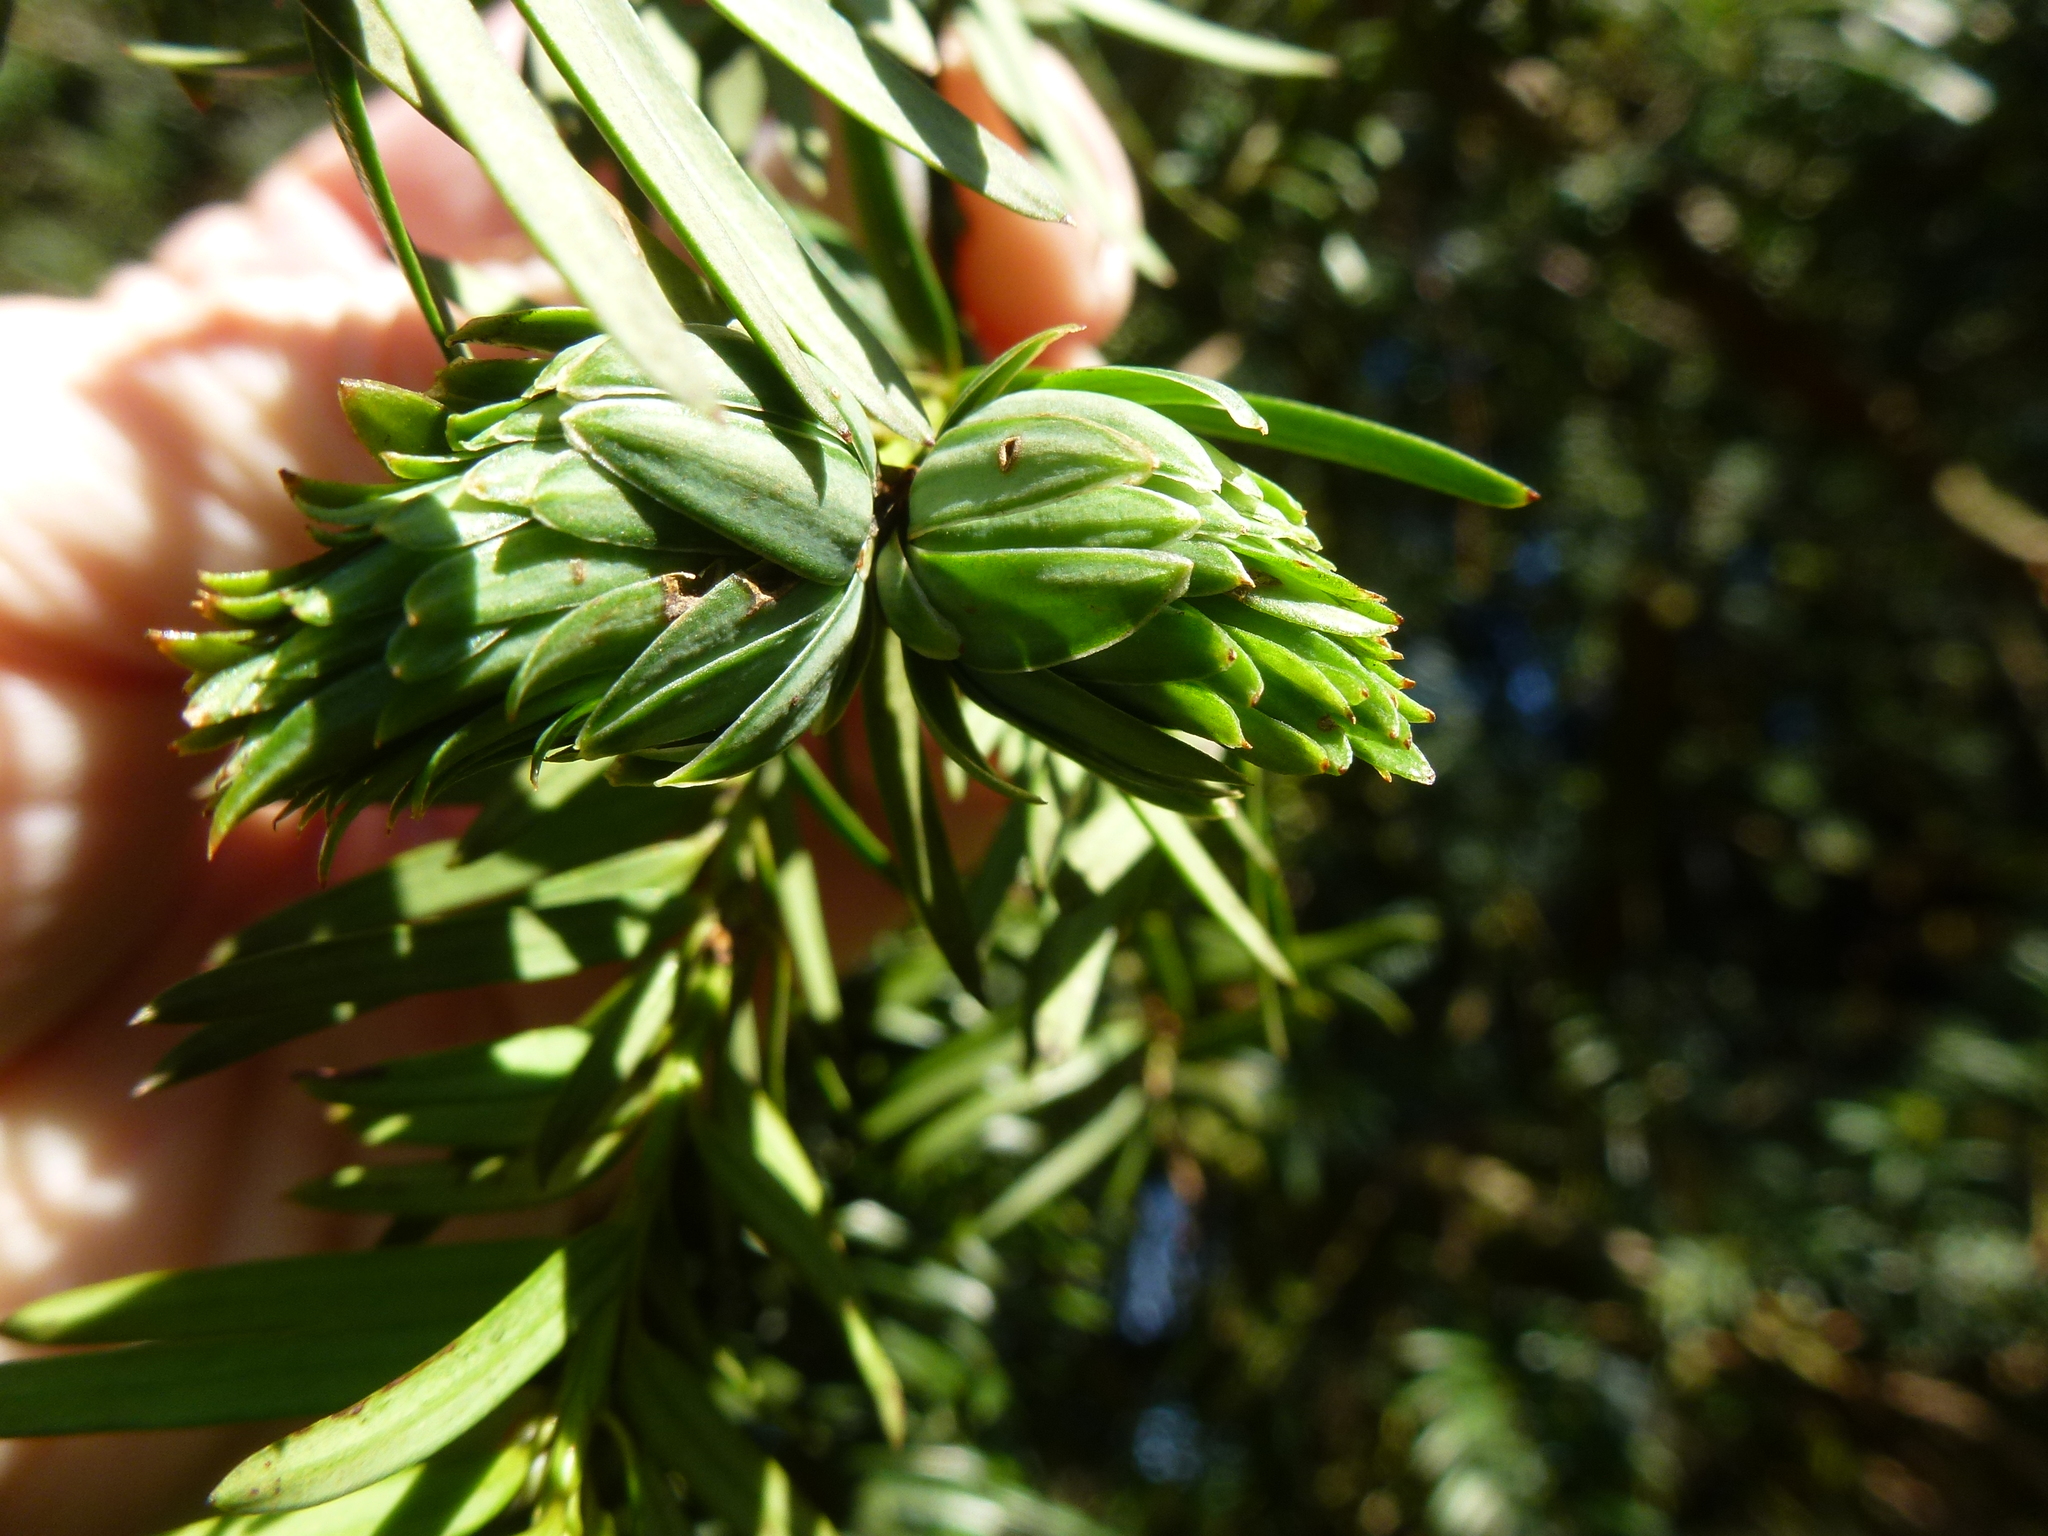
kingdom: Animalia
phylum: Arthropoda
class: Insecta
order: Diptera
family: Cecidomyiidae
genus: Taxomyia
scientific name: Taxomyia taxi
